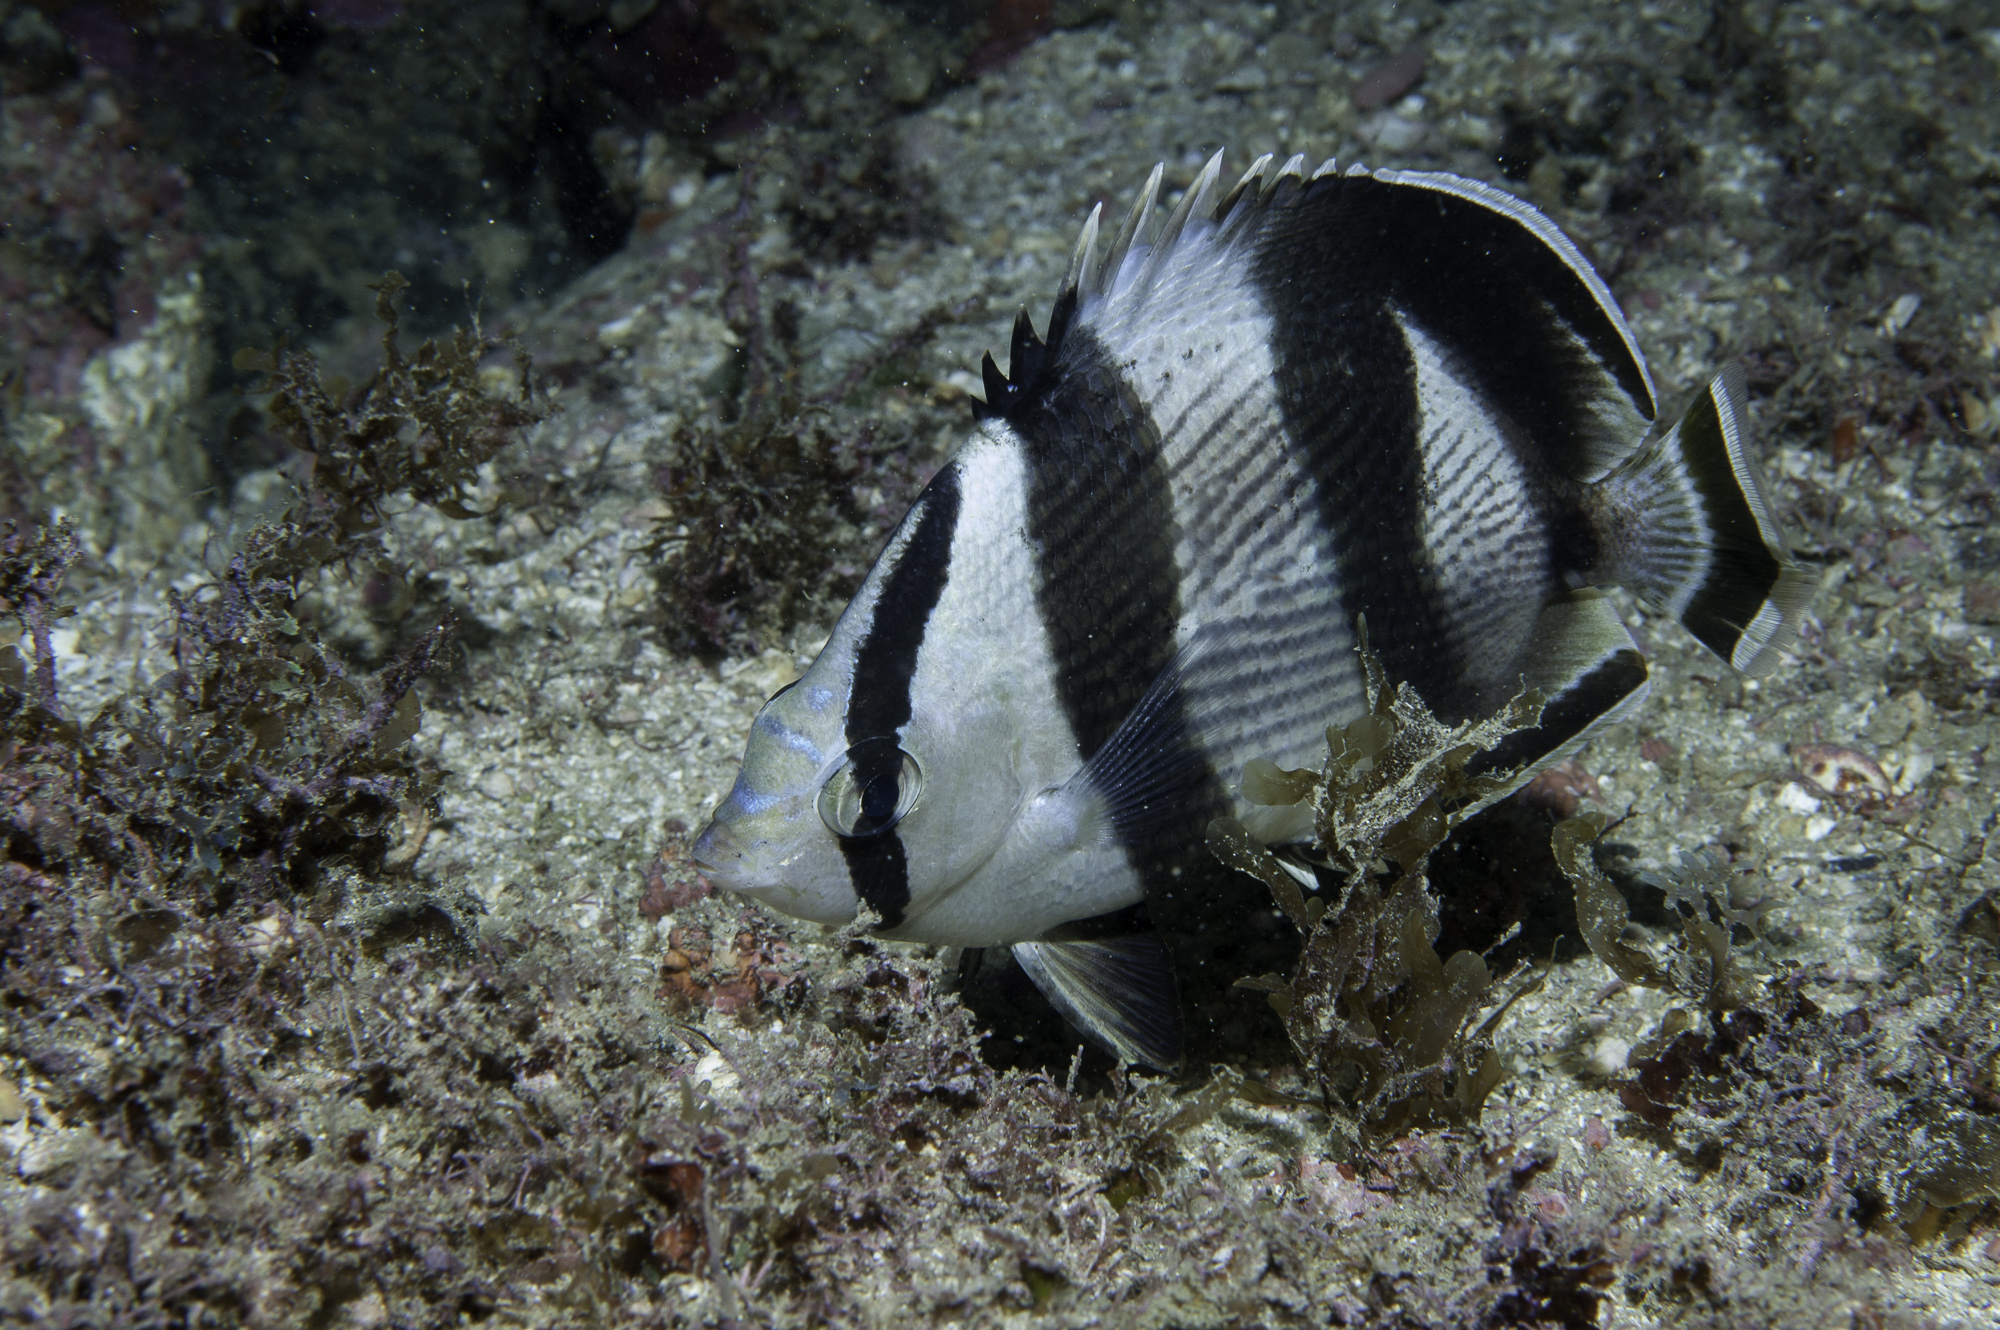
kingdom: Animalia
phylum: Chordata
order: Perciformes
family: Chaetodontidae
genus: Chaetodon
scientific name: Chaetodon striatus
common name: Banded butterflyfish
